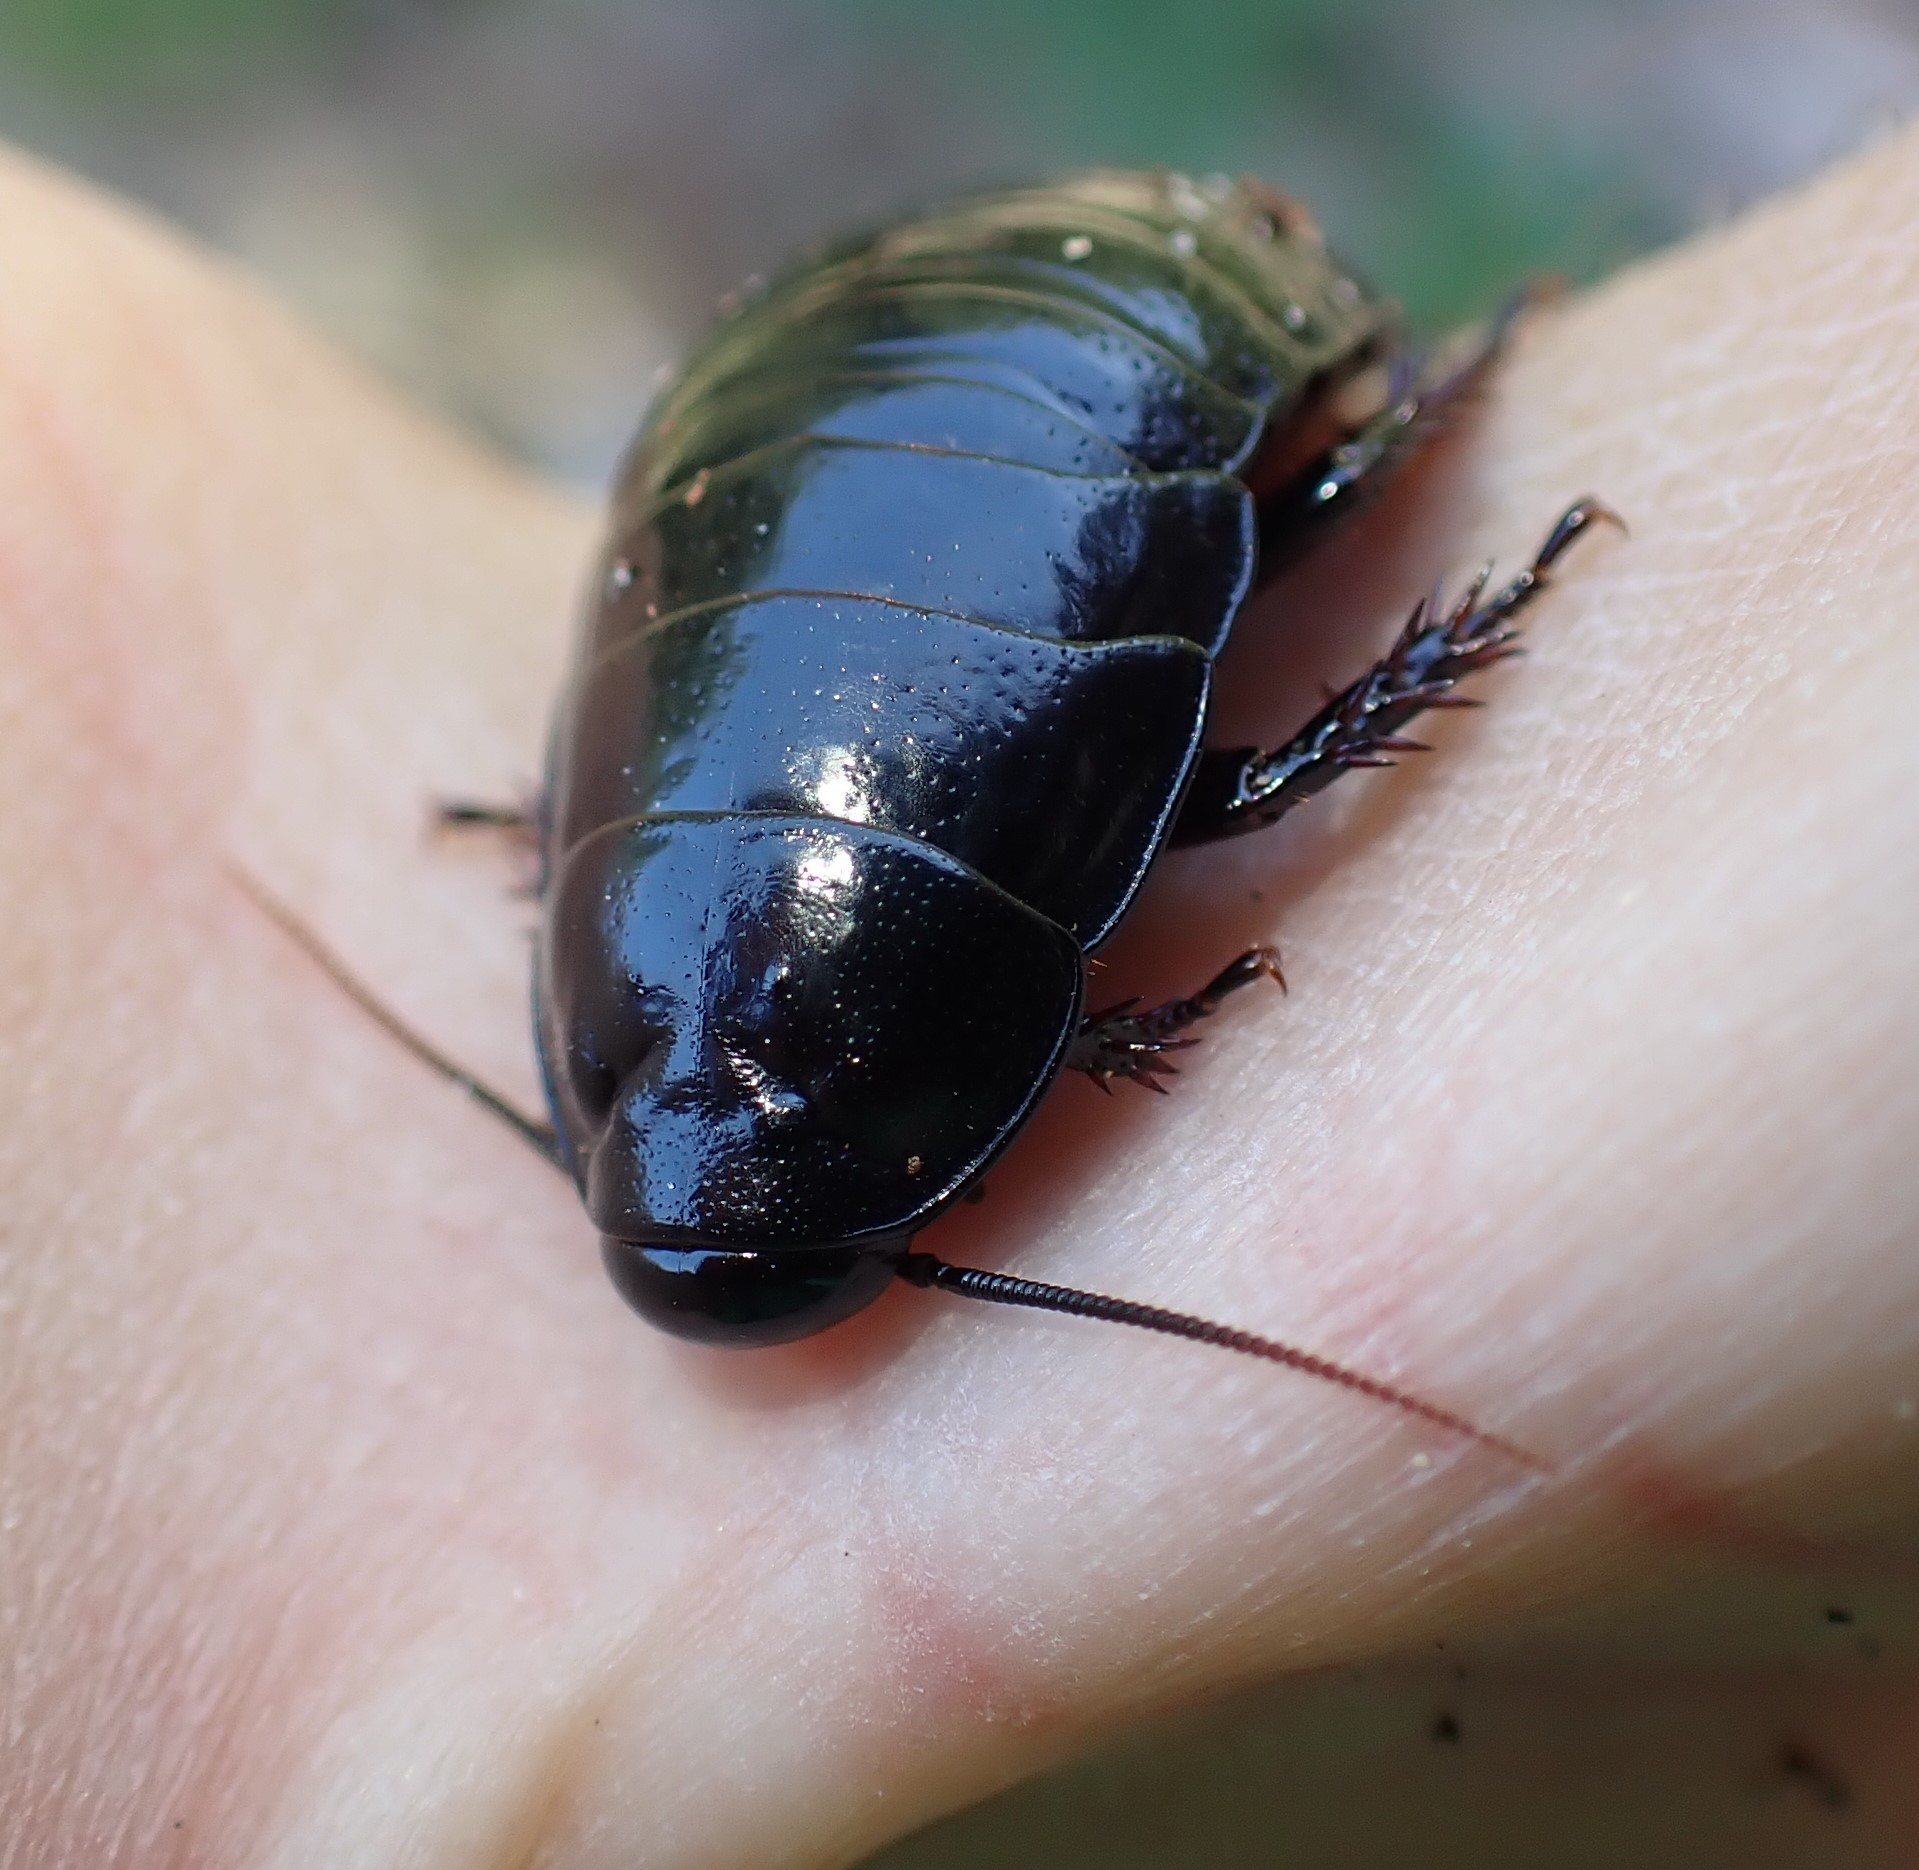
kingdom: Animalia
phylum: Arthropoda
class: Insecta
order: Blattodea
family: Blaberidae
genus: Panesthia
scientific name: Panesthia australis
